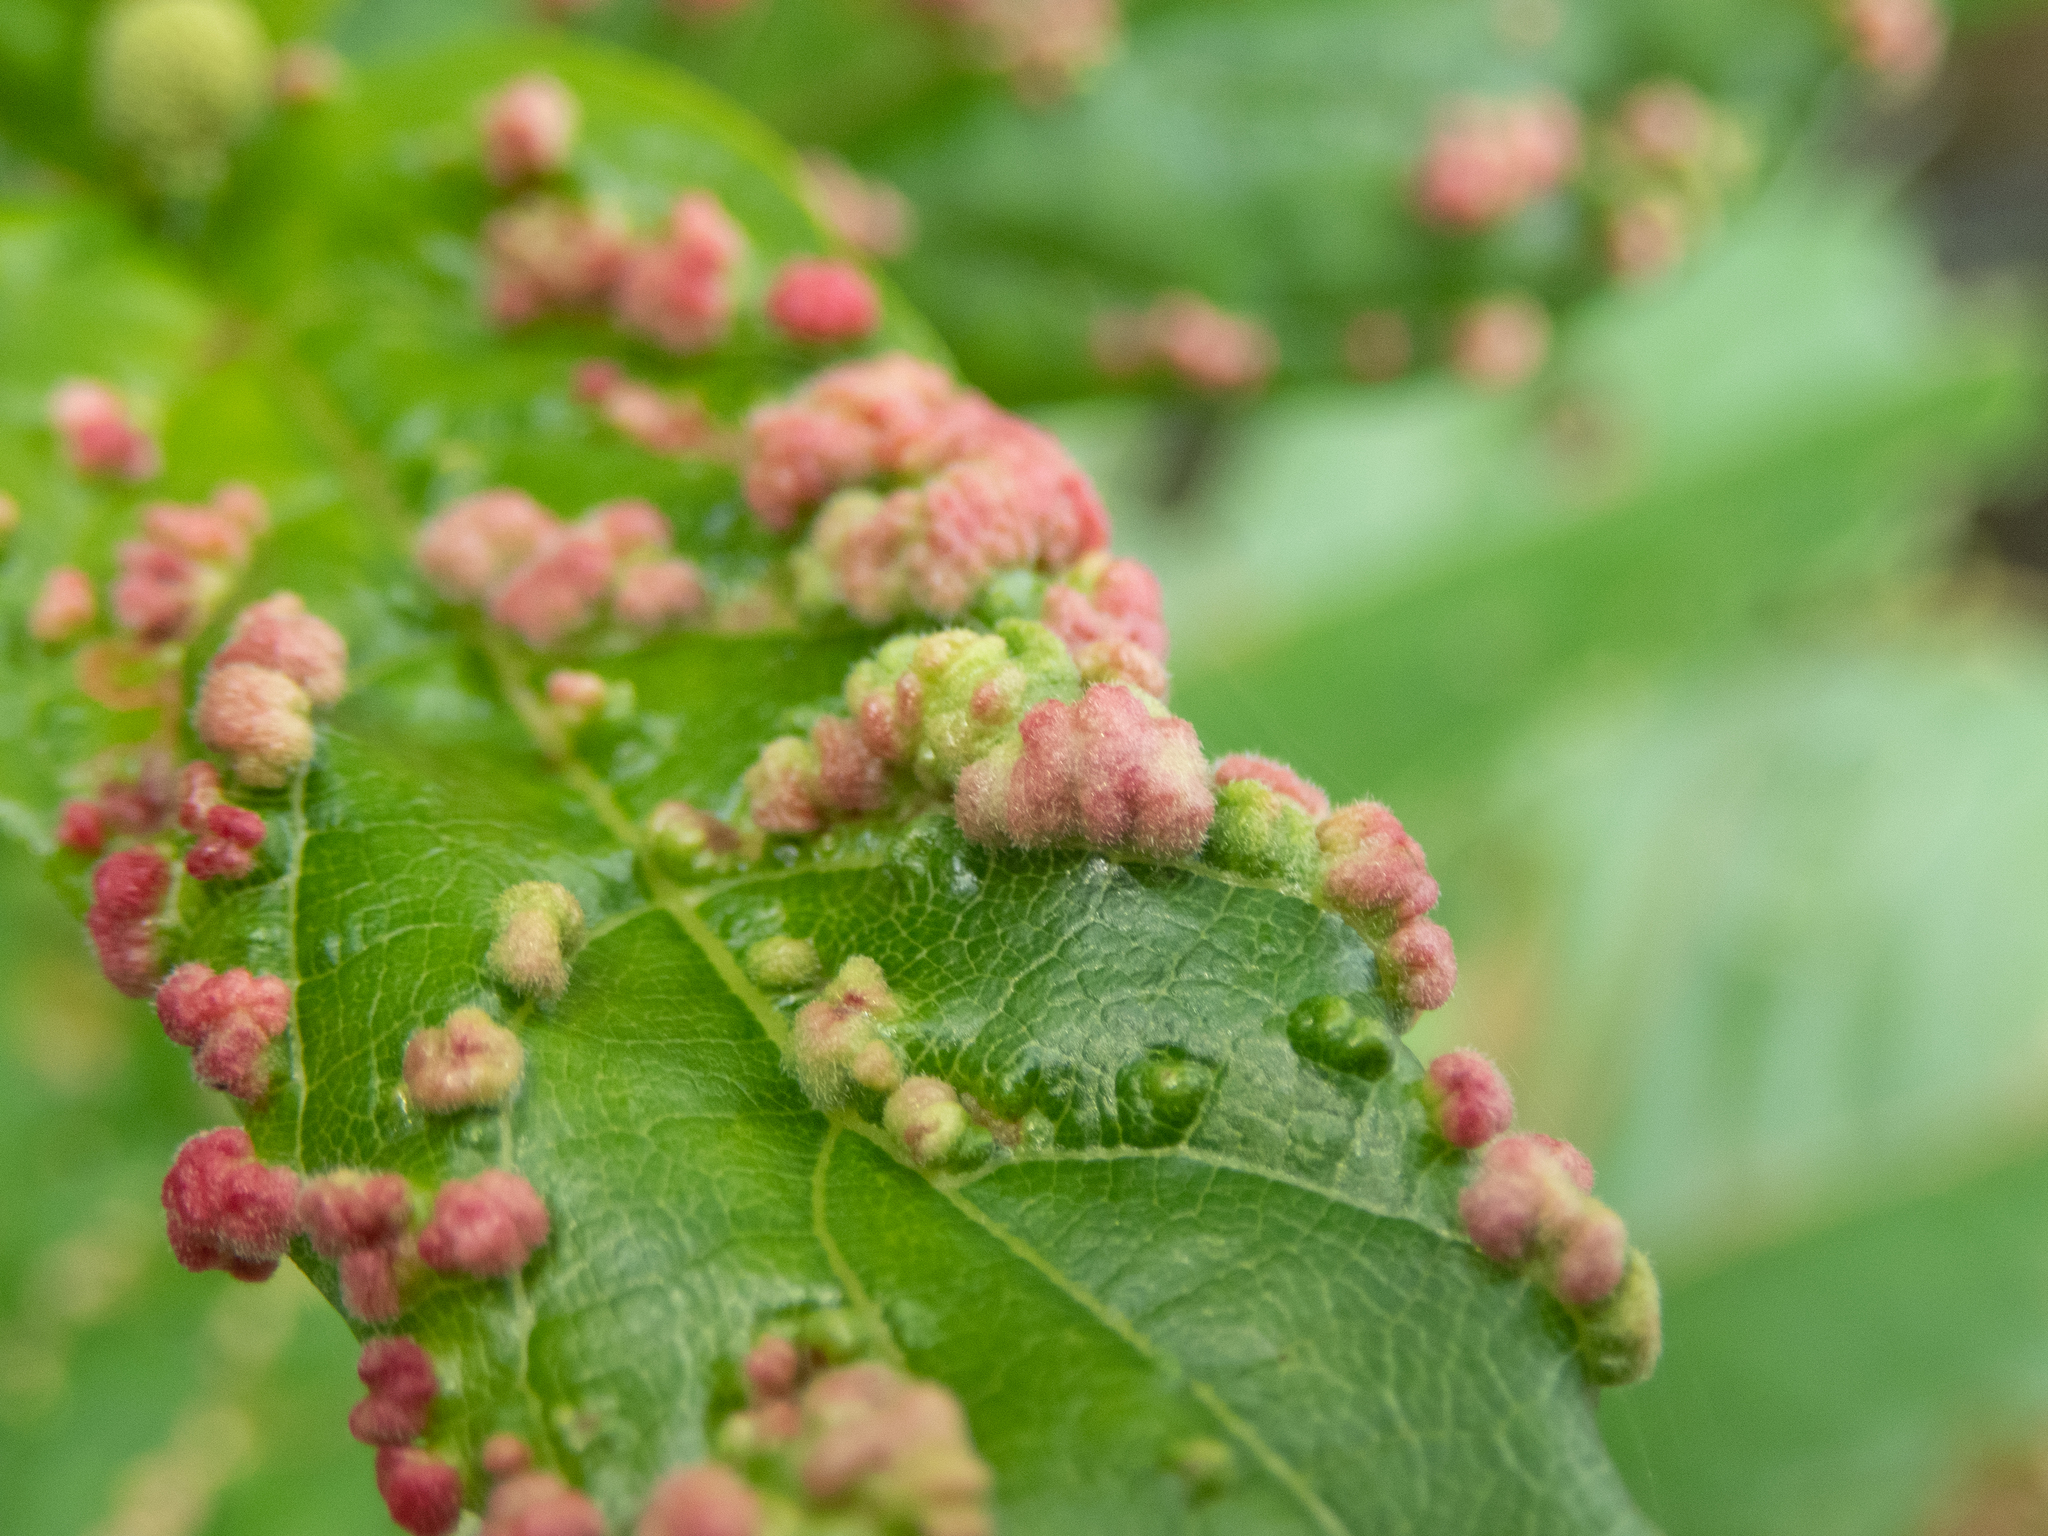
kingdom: Animalia
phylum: Arthropoda
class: Arachnida
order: Trombidiformes
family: Eriophyidae
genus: Aceria
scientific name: Aceria
